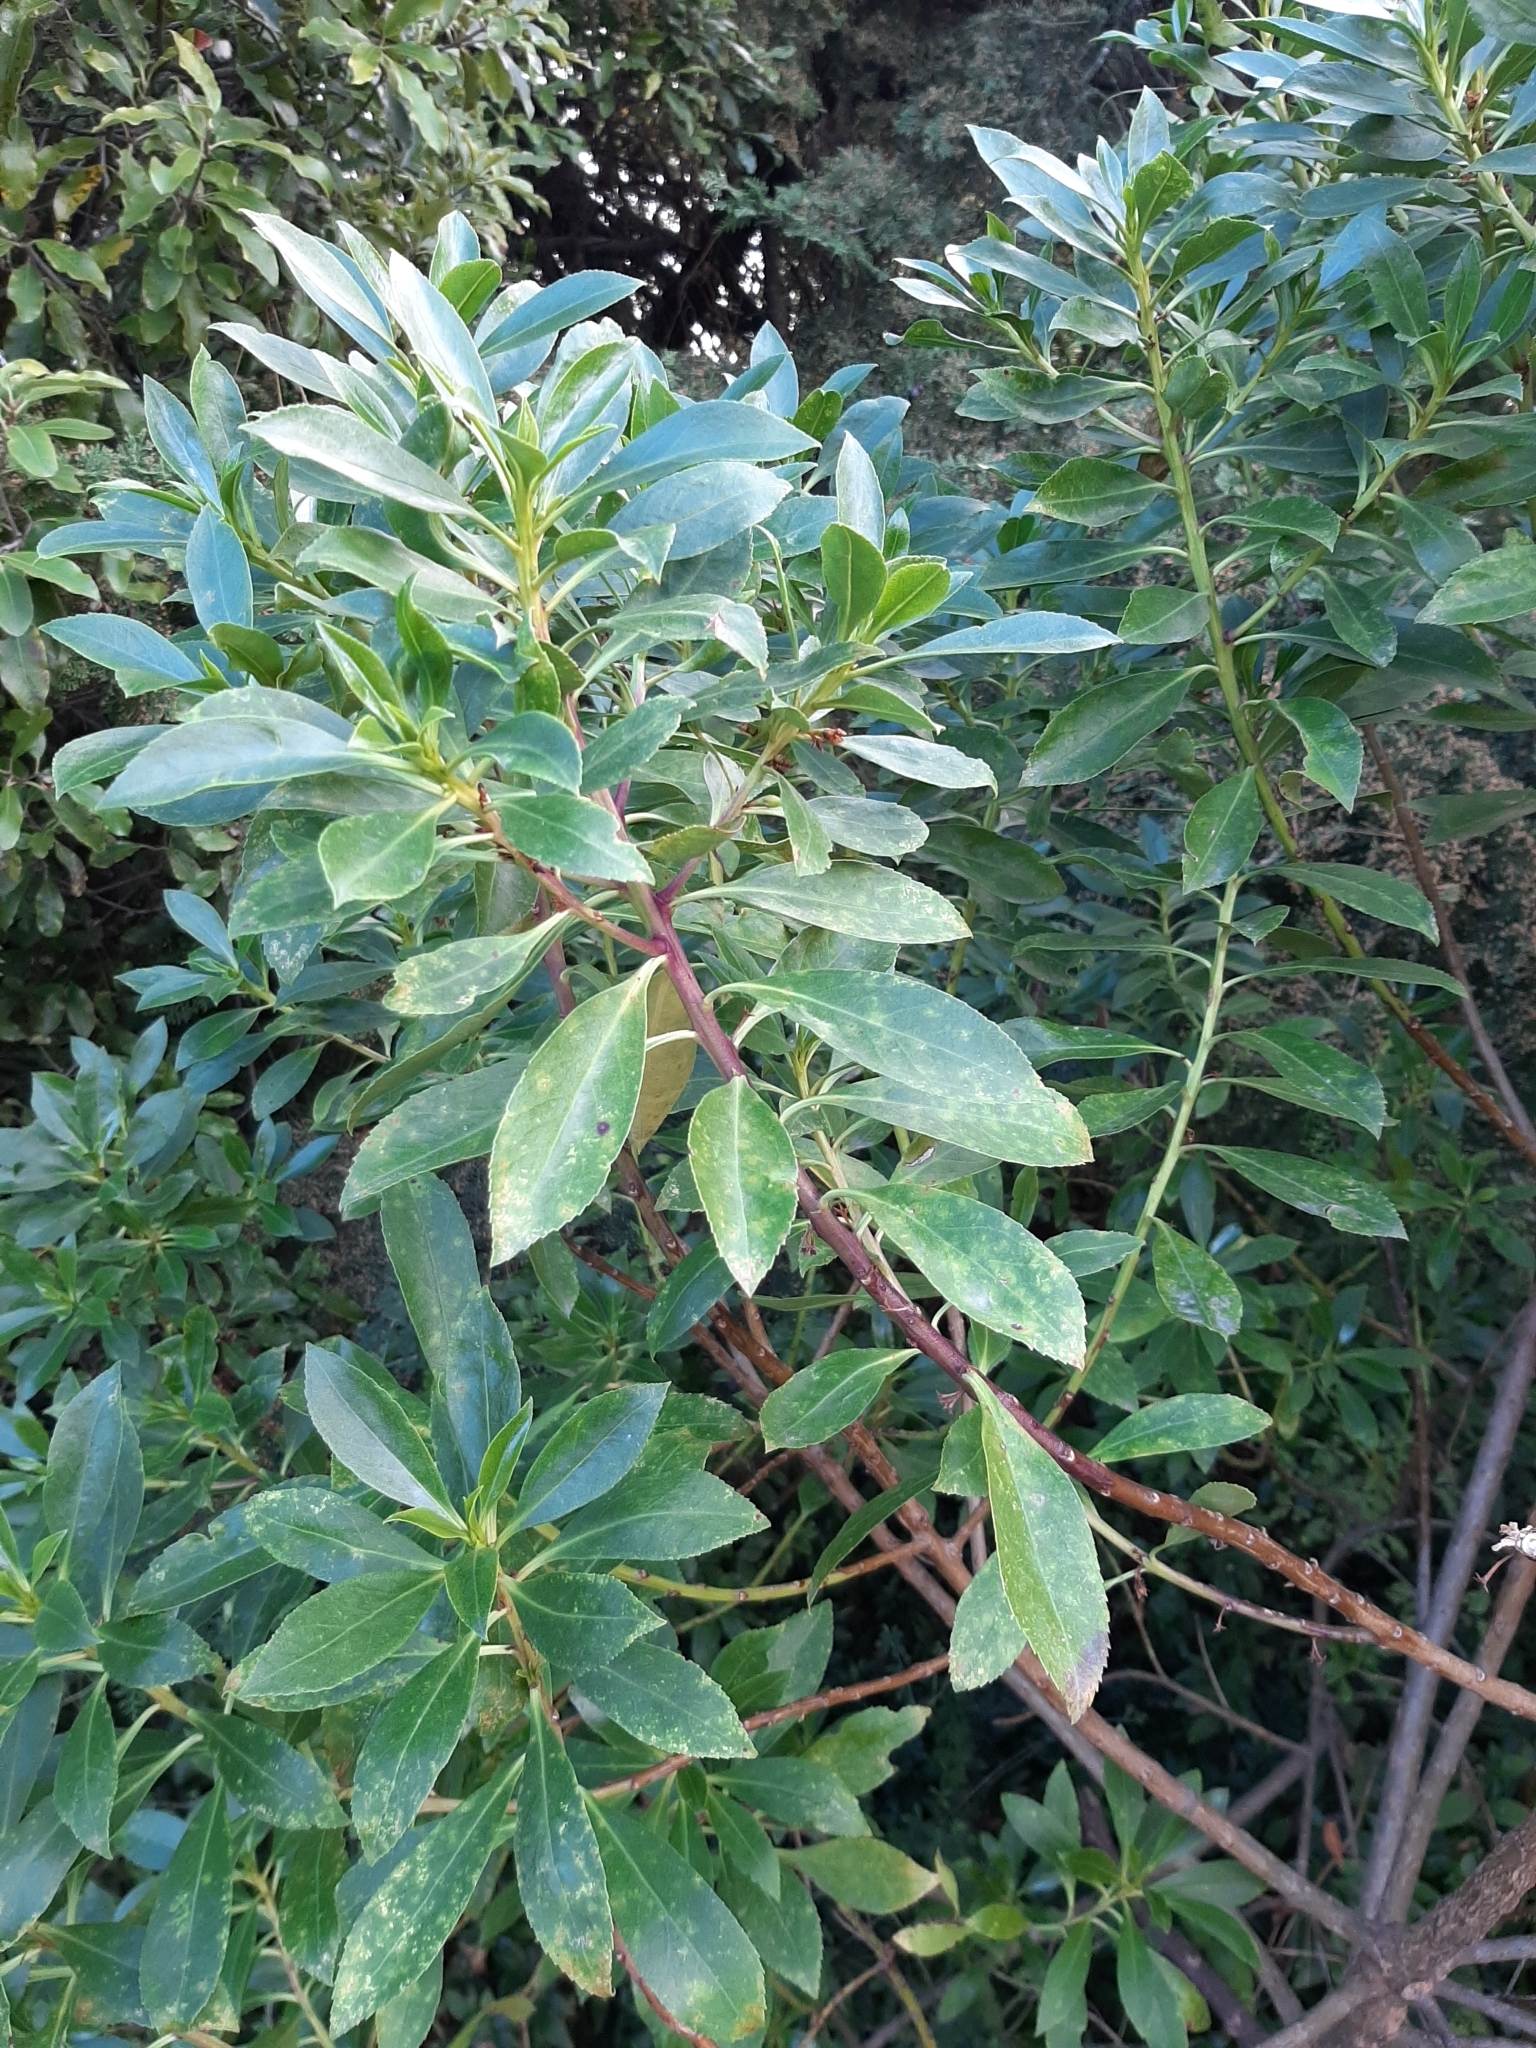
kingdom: Plantae
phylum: Tracheophyta
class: Magnoliopsida
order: Lamiales
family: Scrophulariaceae
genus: Myoporum
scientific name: Myoporum insulare
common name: Common boobialla
